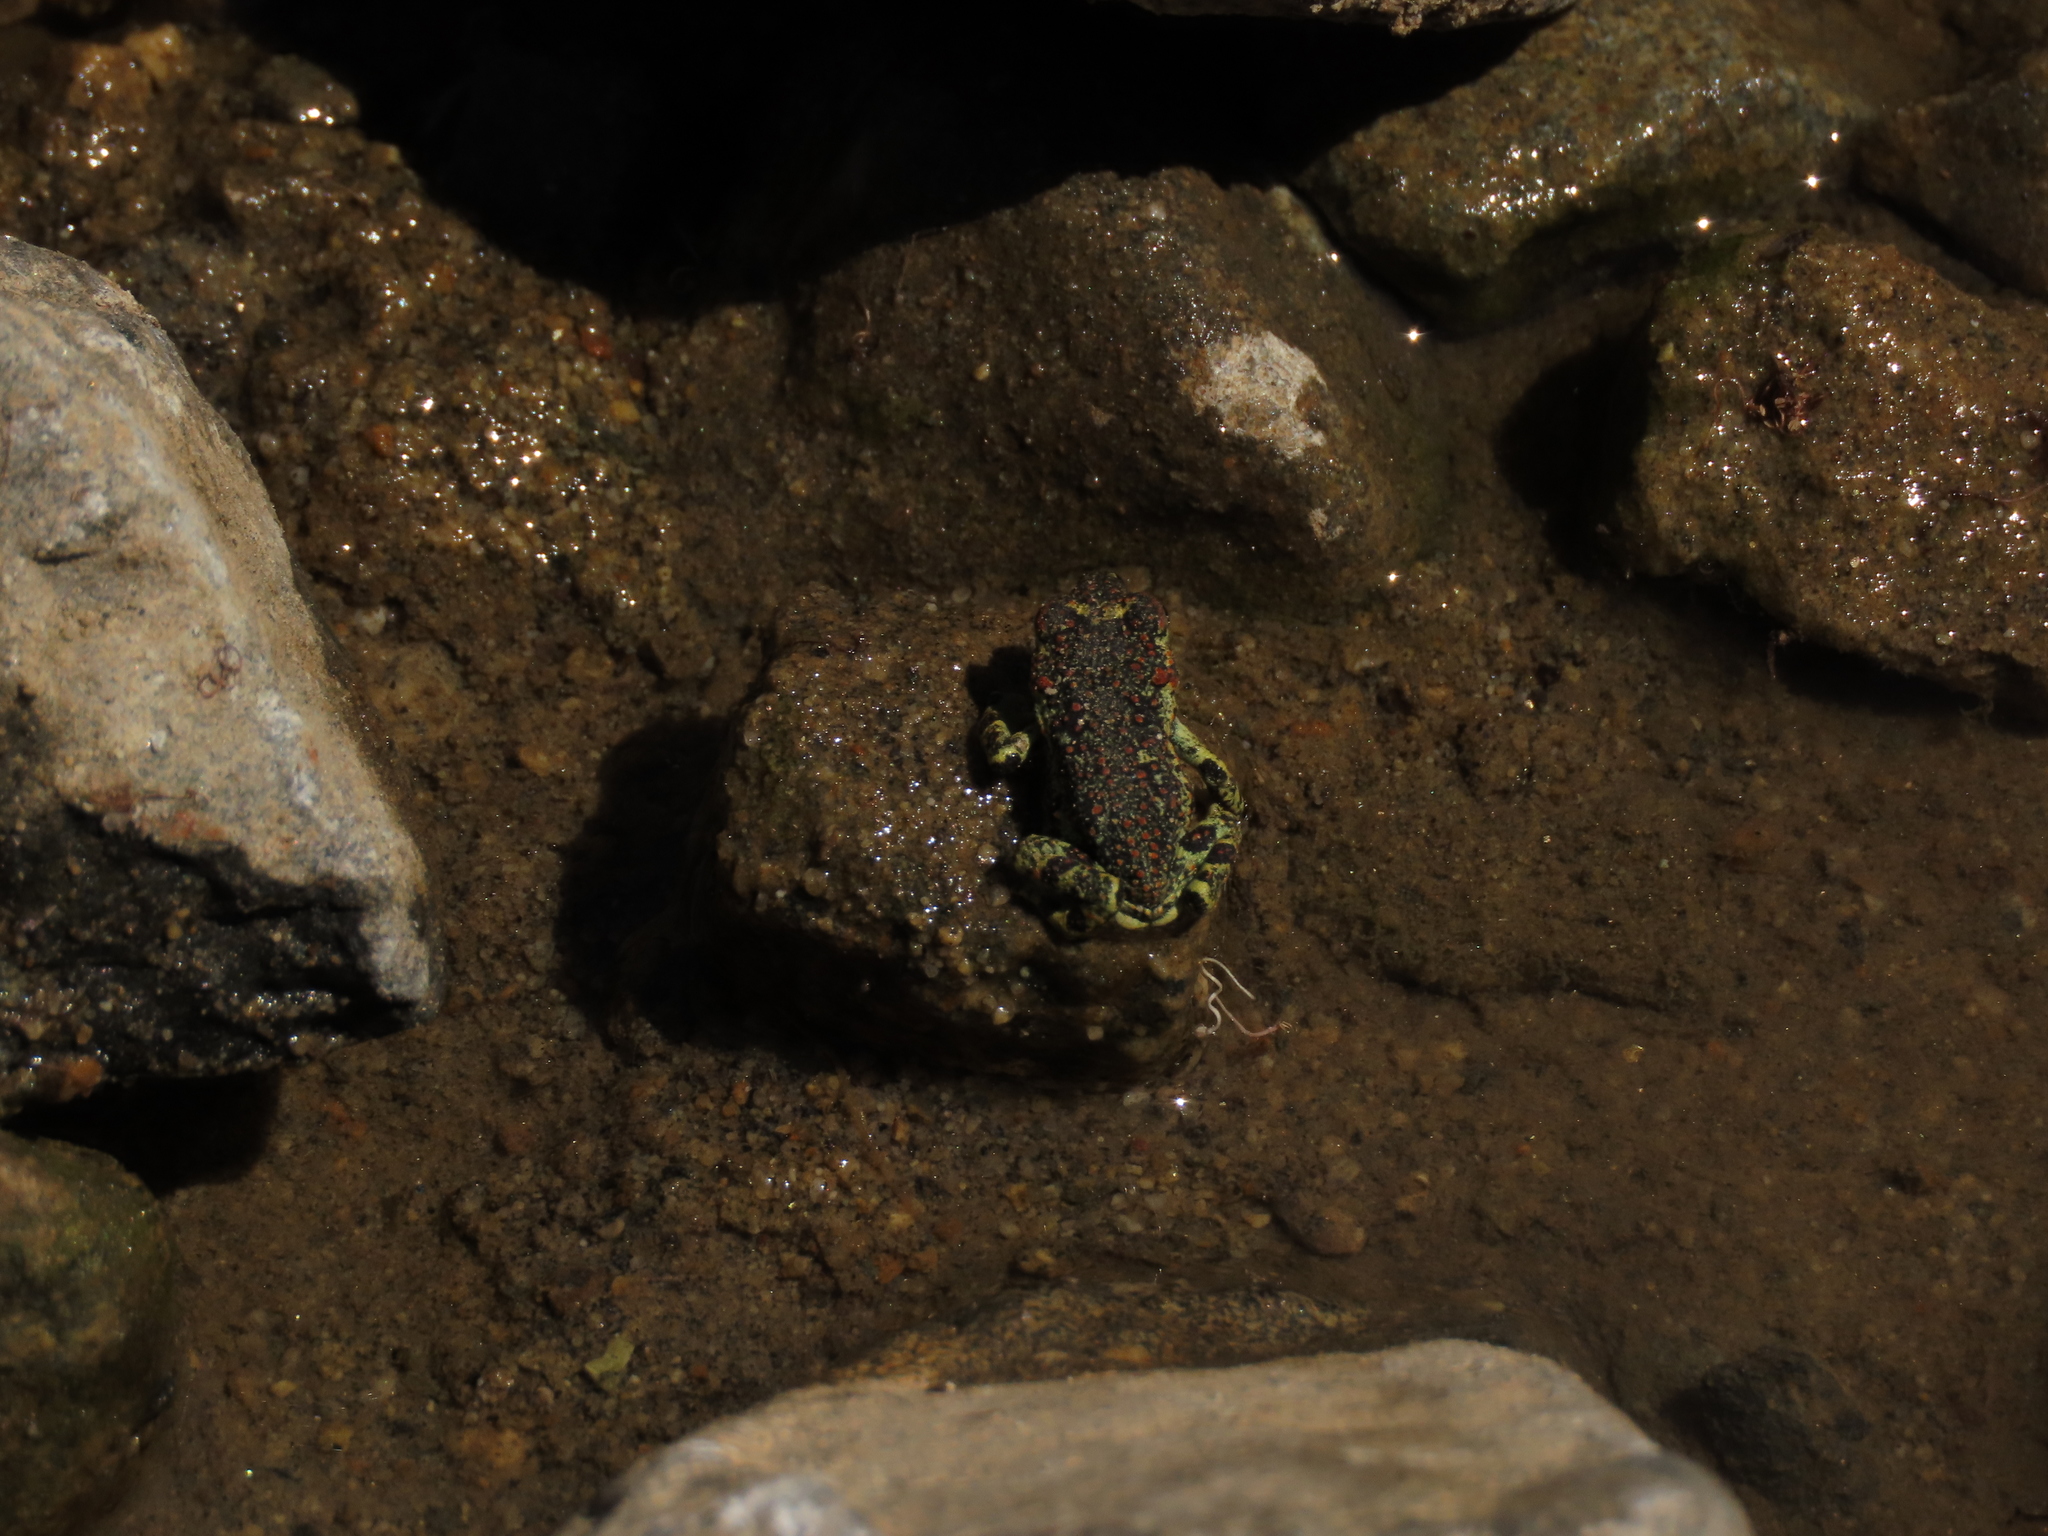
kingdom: Animalia
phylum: Chordata
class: Amphibia
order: Anura
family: Bufonidae
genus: Rhinella
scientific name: Rhinella atacamensis
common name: Atacama toad
